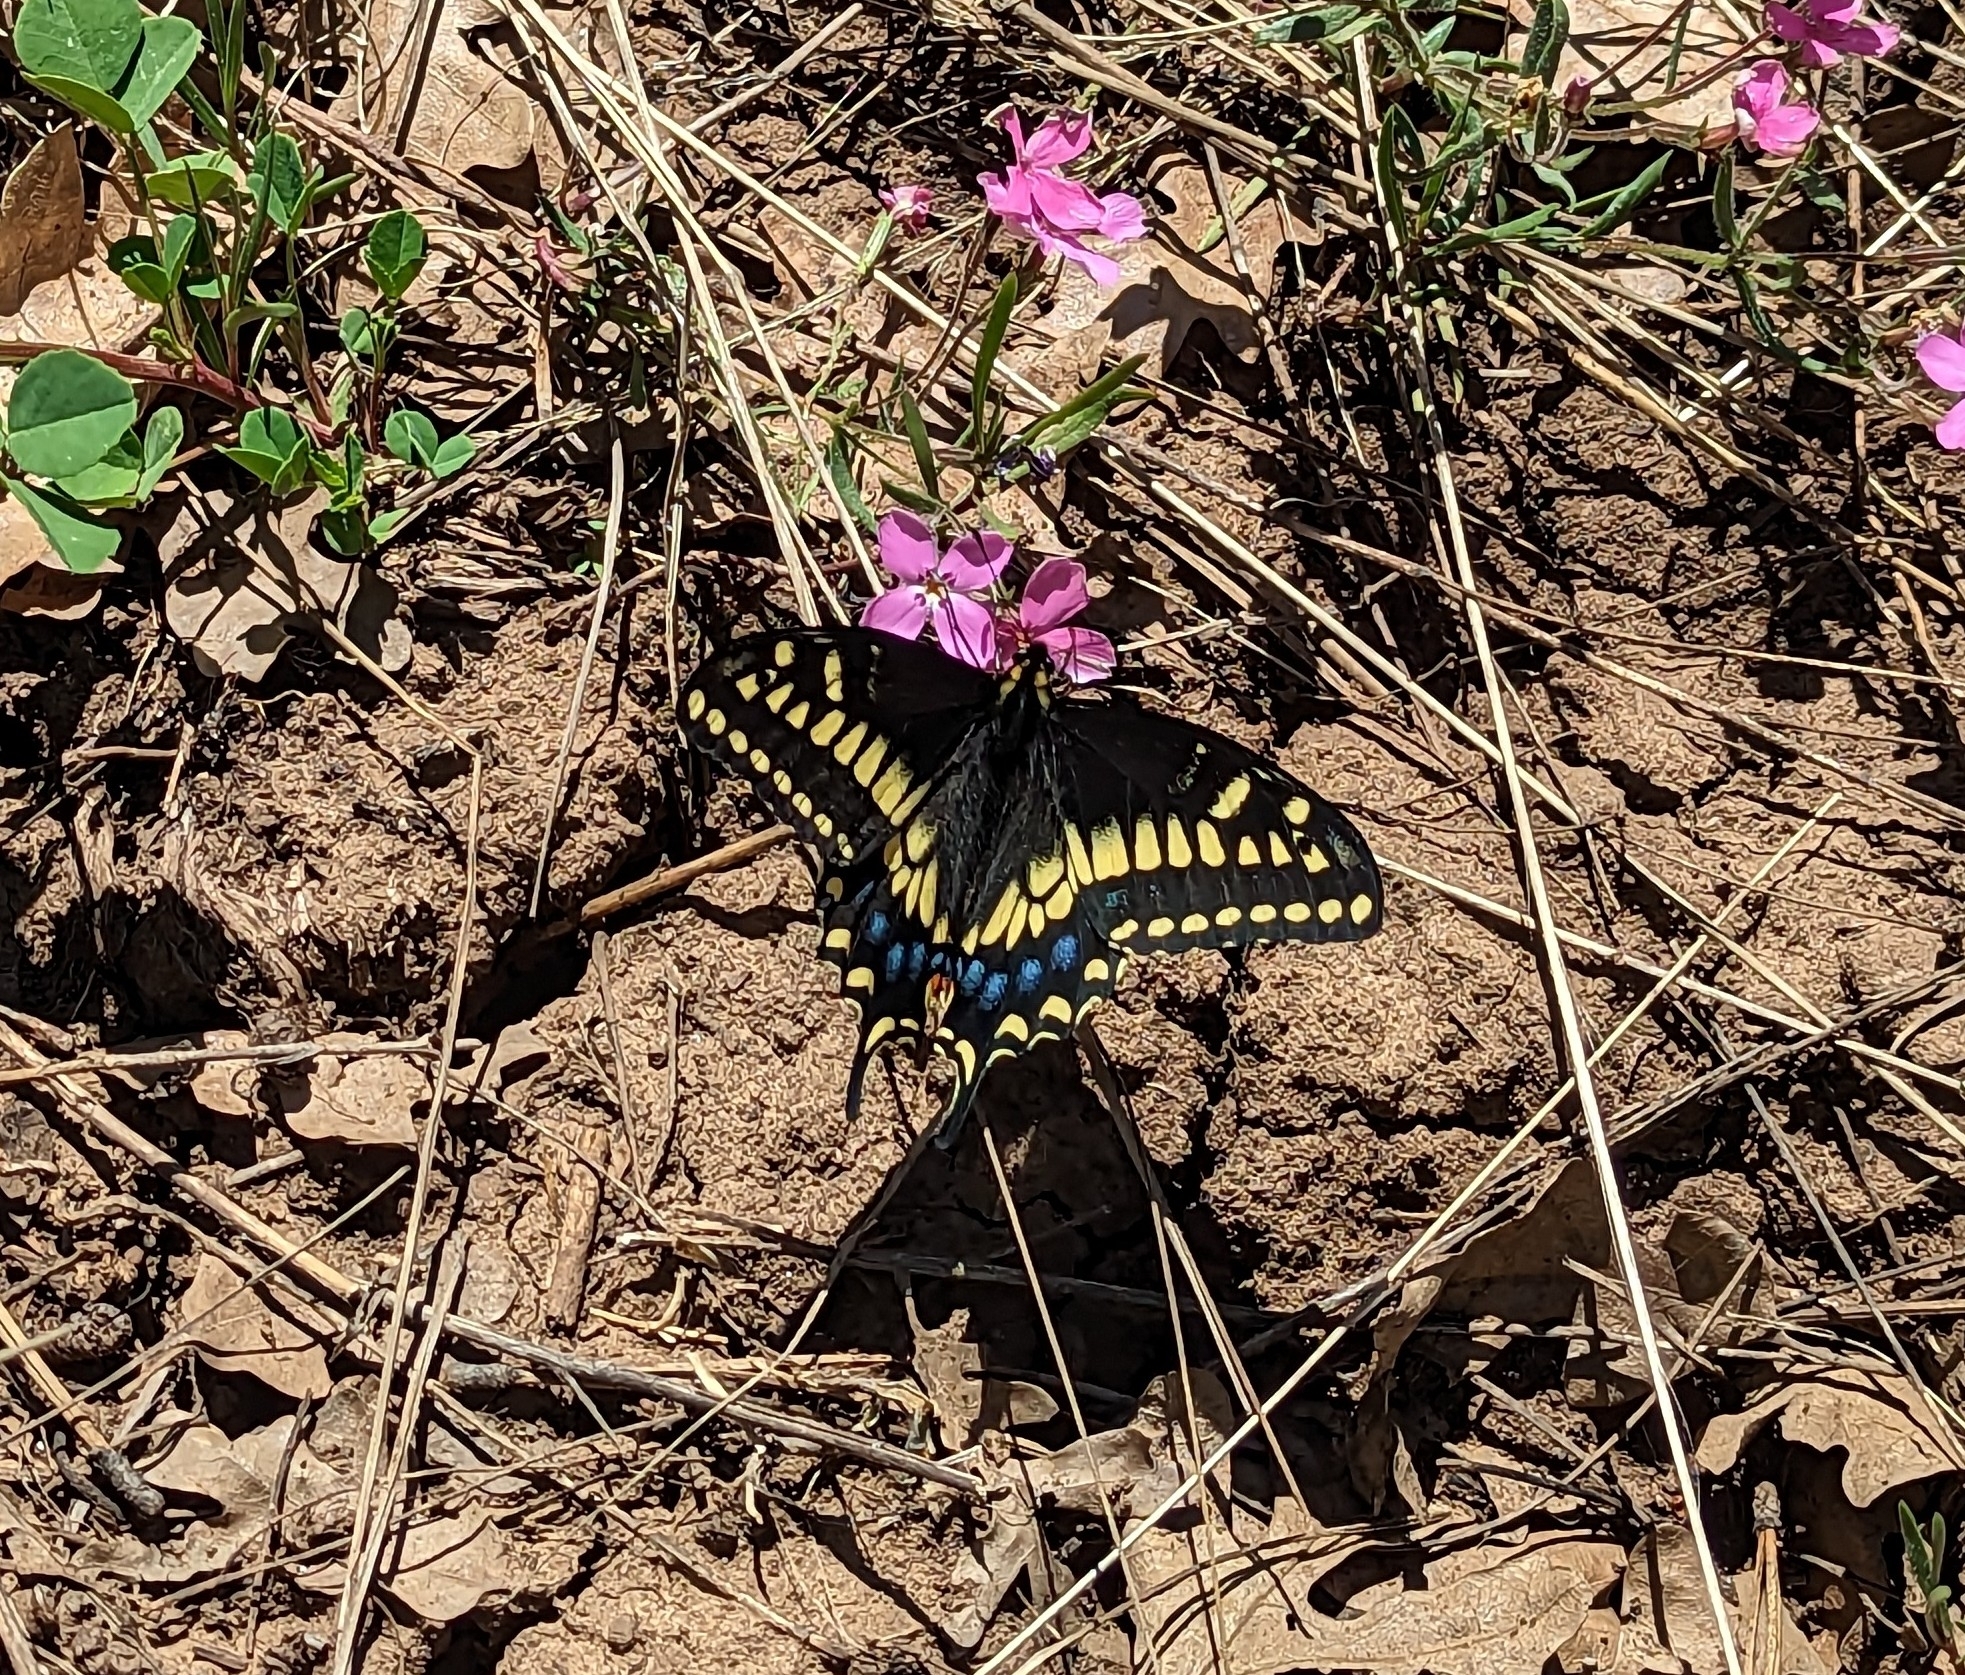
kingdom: Animalia
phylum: Arthropoda
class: Insecta
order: Lepidoptera
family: Papilionidae
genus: Papilio
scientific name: Papilio
